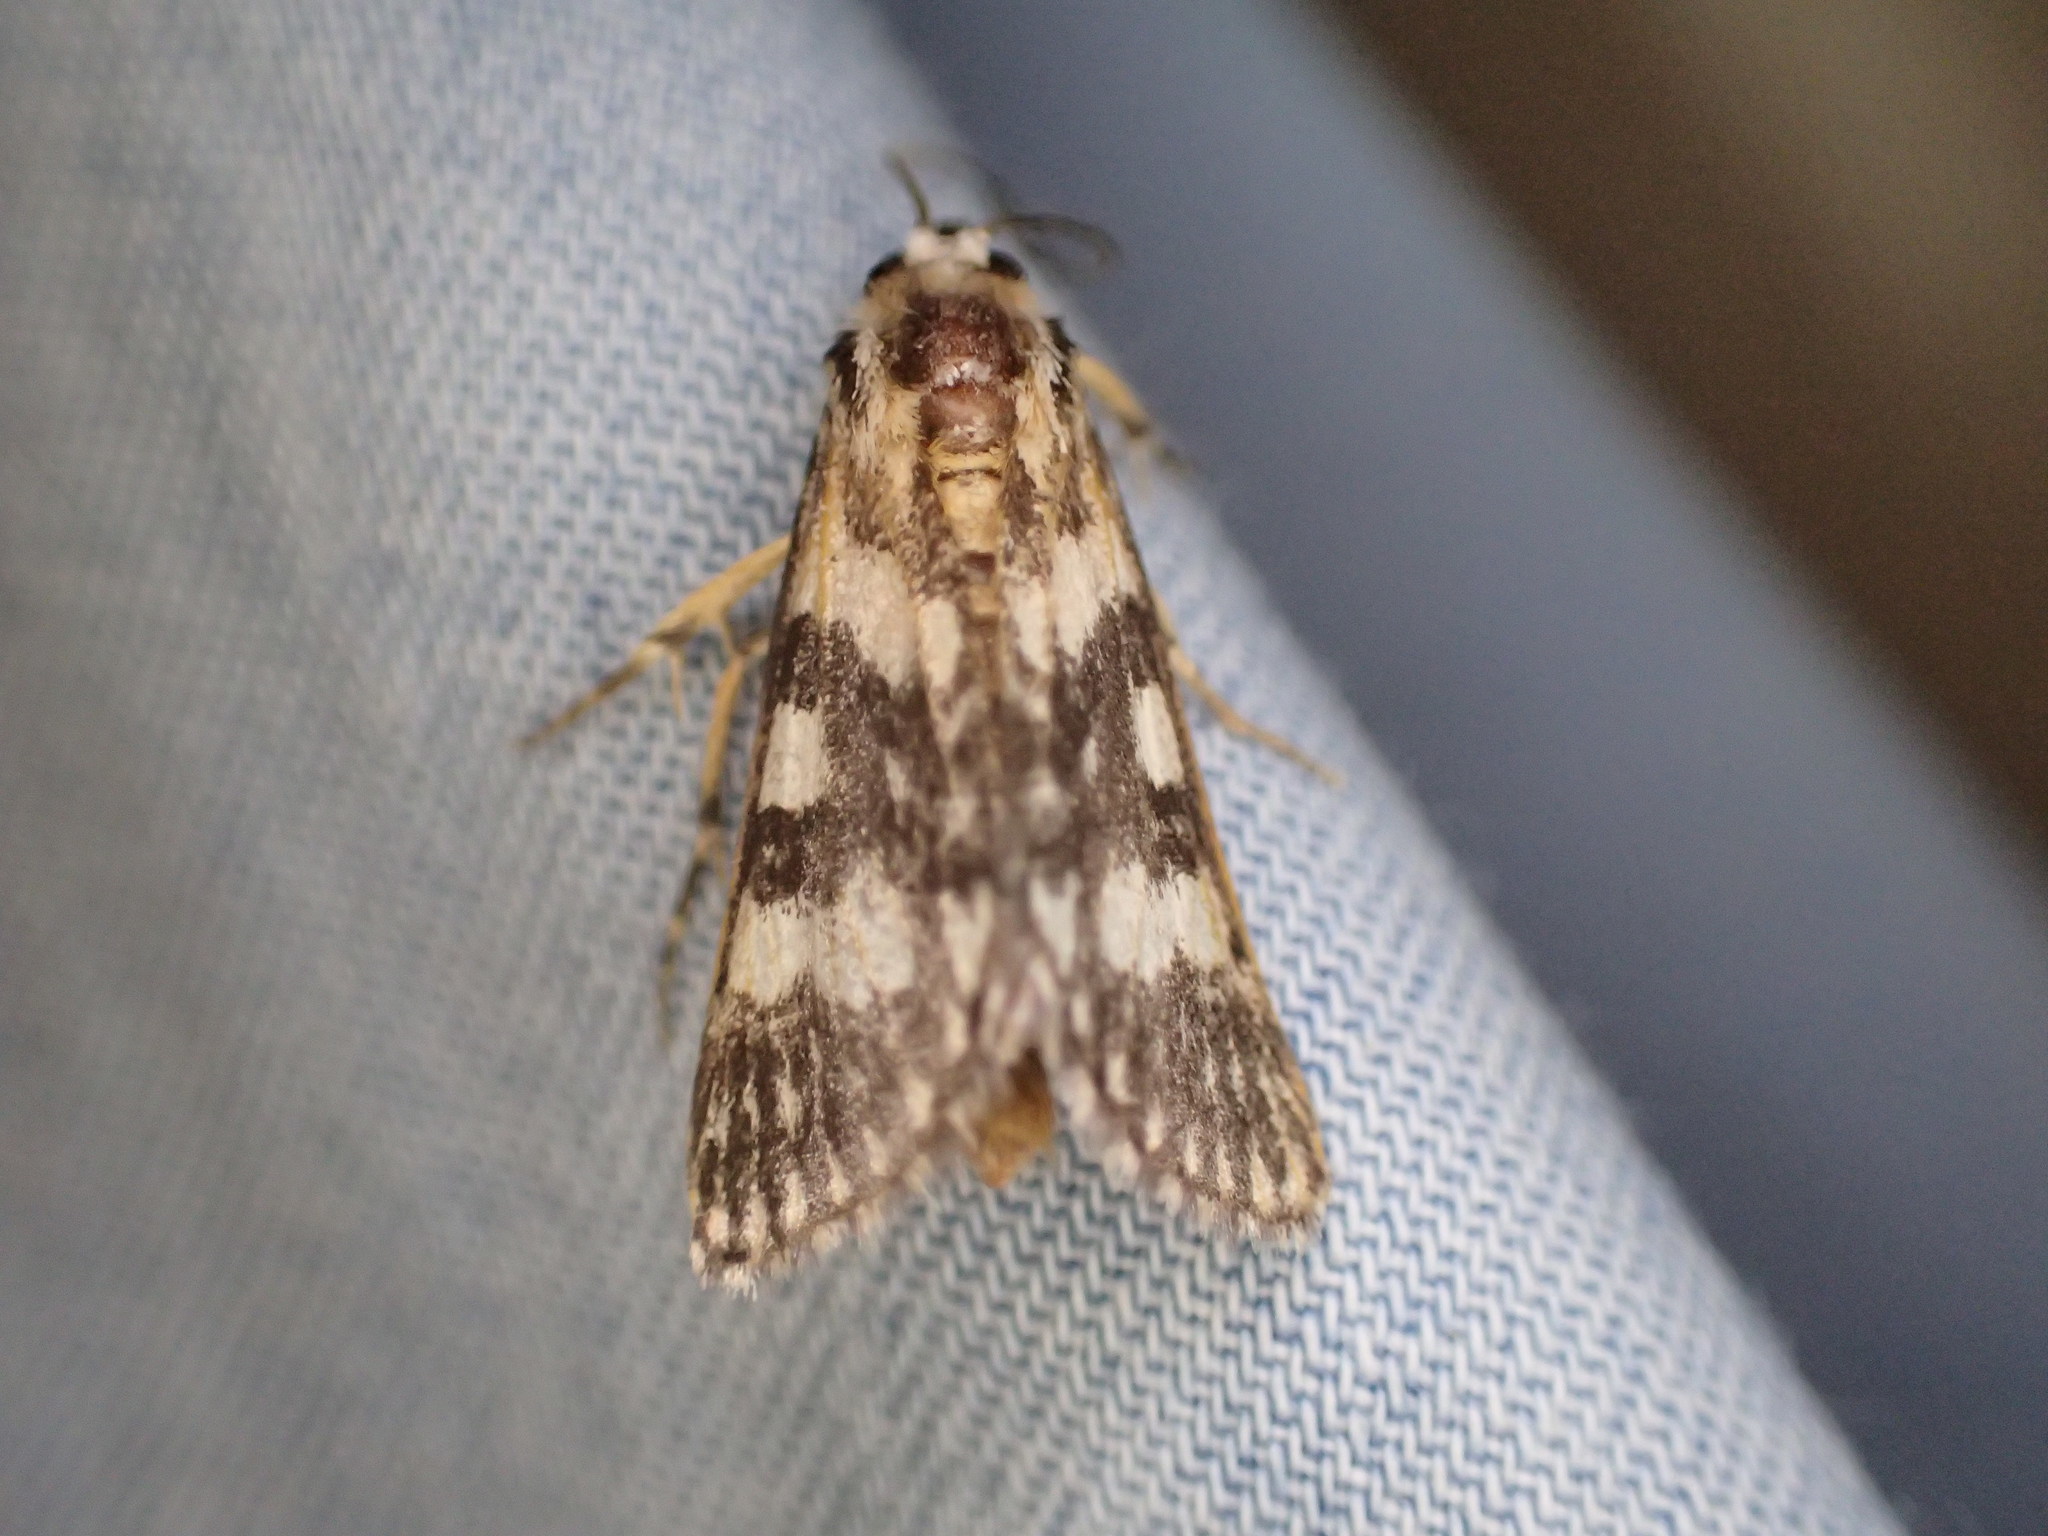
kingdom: Animalia
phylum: Arthropoda
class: Insecta
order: Lepidoptera
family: Noctuidae
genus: Ipanica
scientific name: Ipanica cornigera
